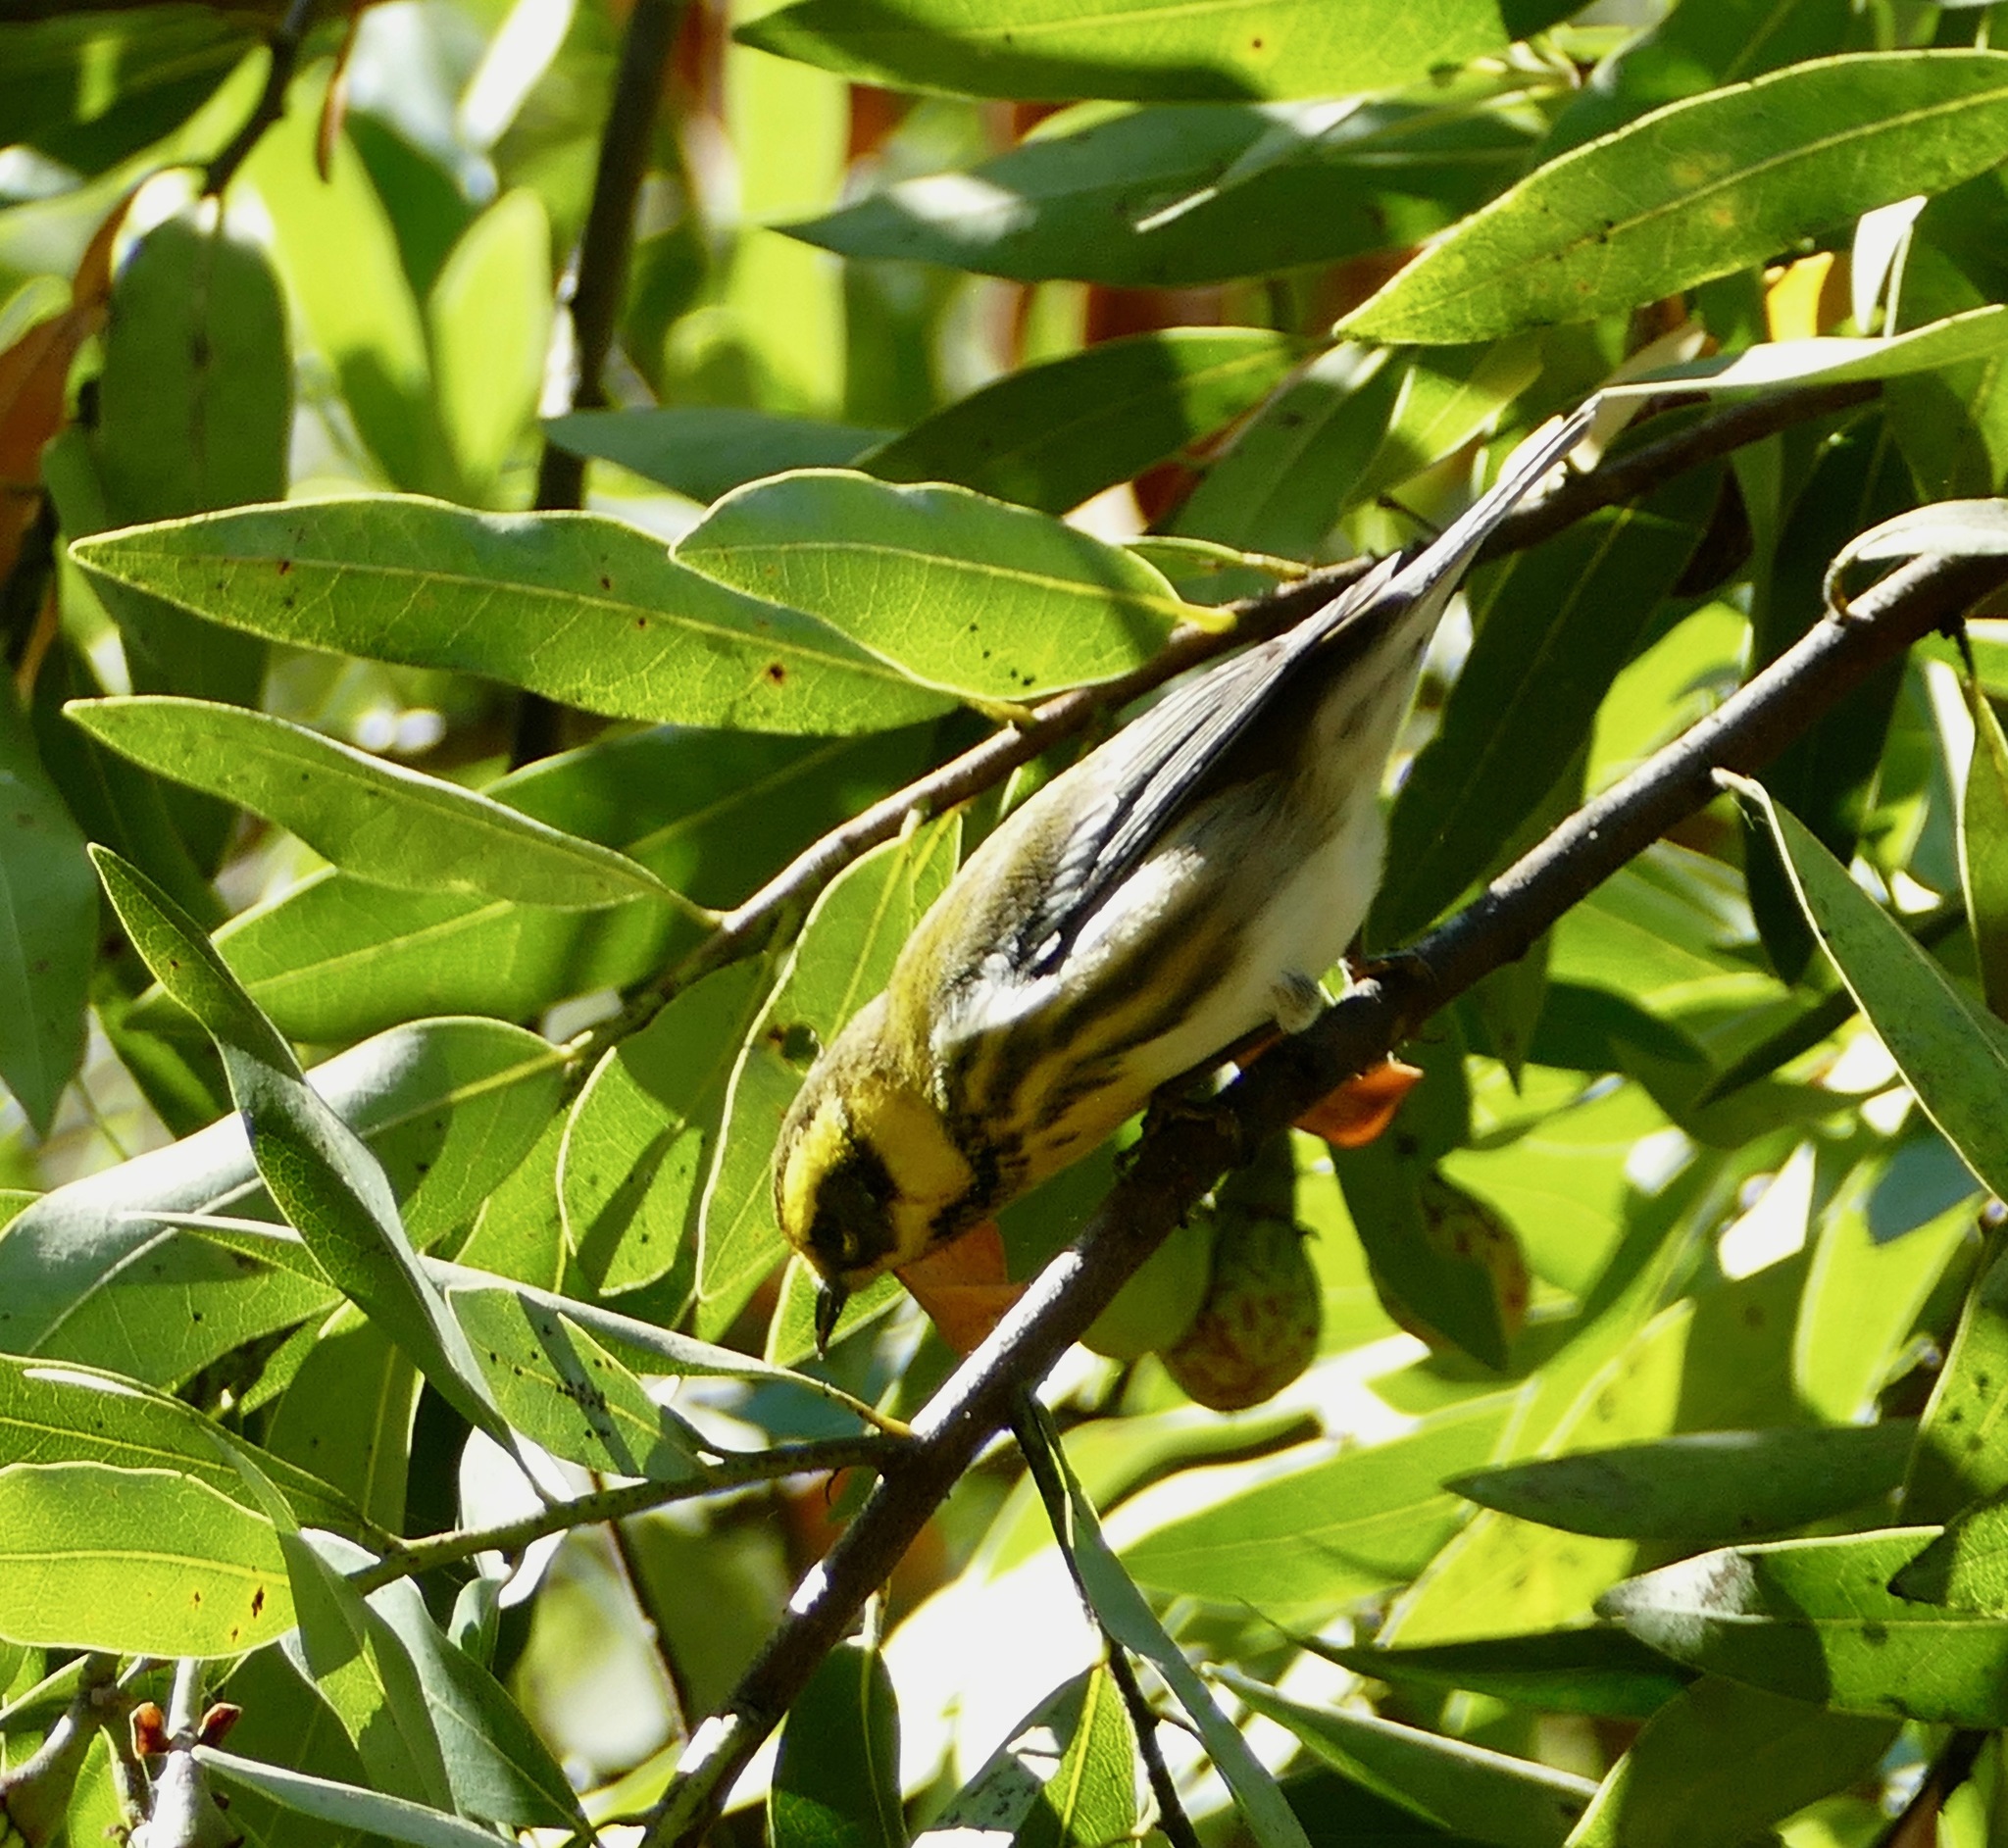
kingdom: Animalia
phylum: Chordata
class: Aves
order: Passeriformes
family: Parulidae
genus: Setophaga
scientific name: Setophaga townsendi
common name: Townsend's warbler
